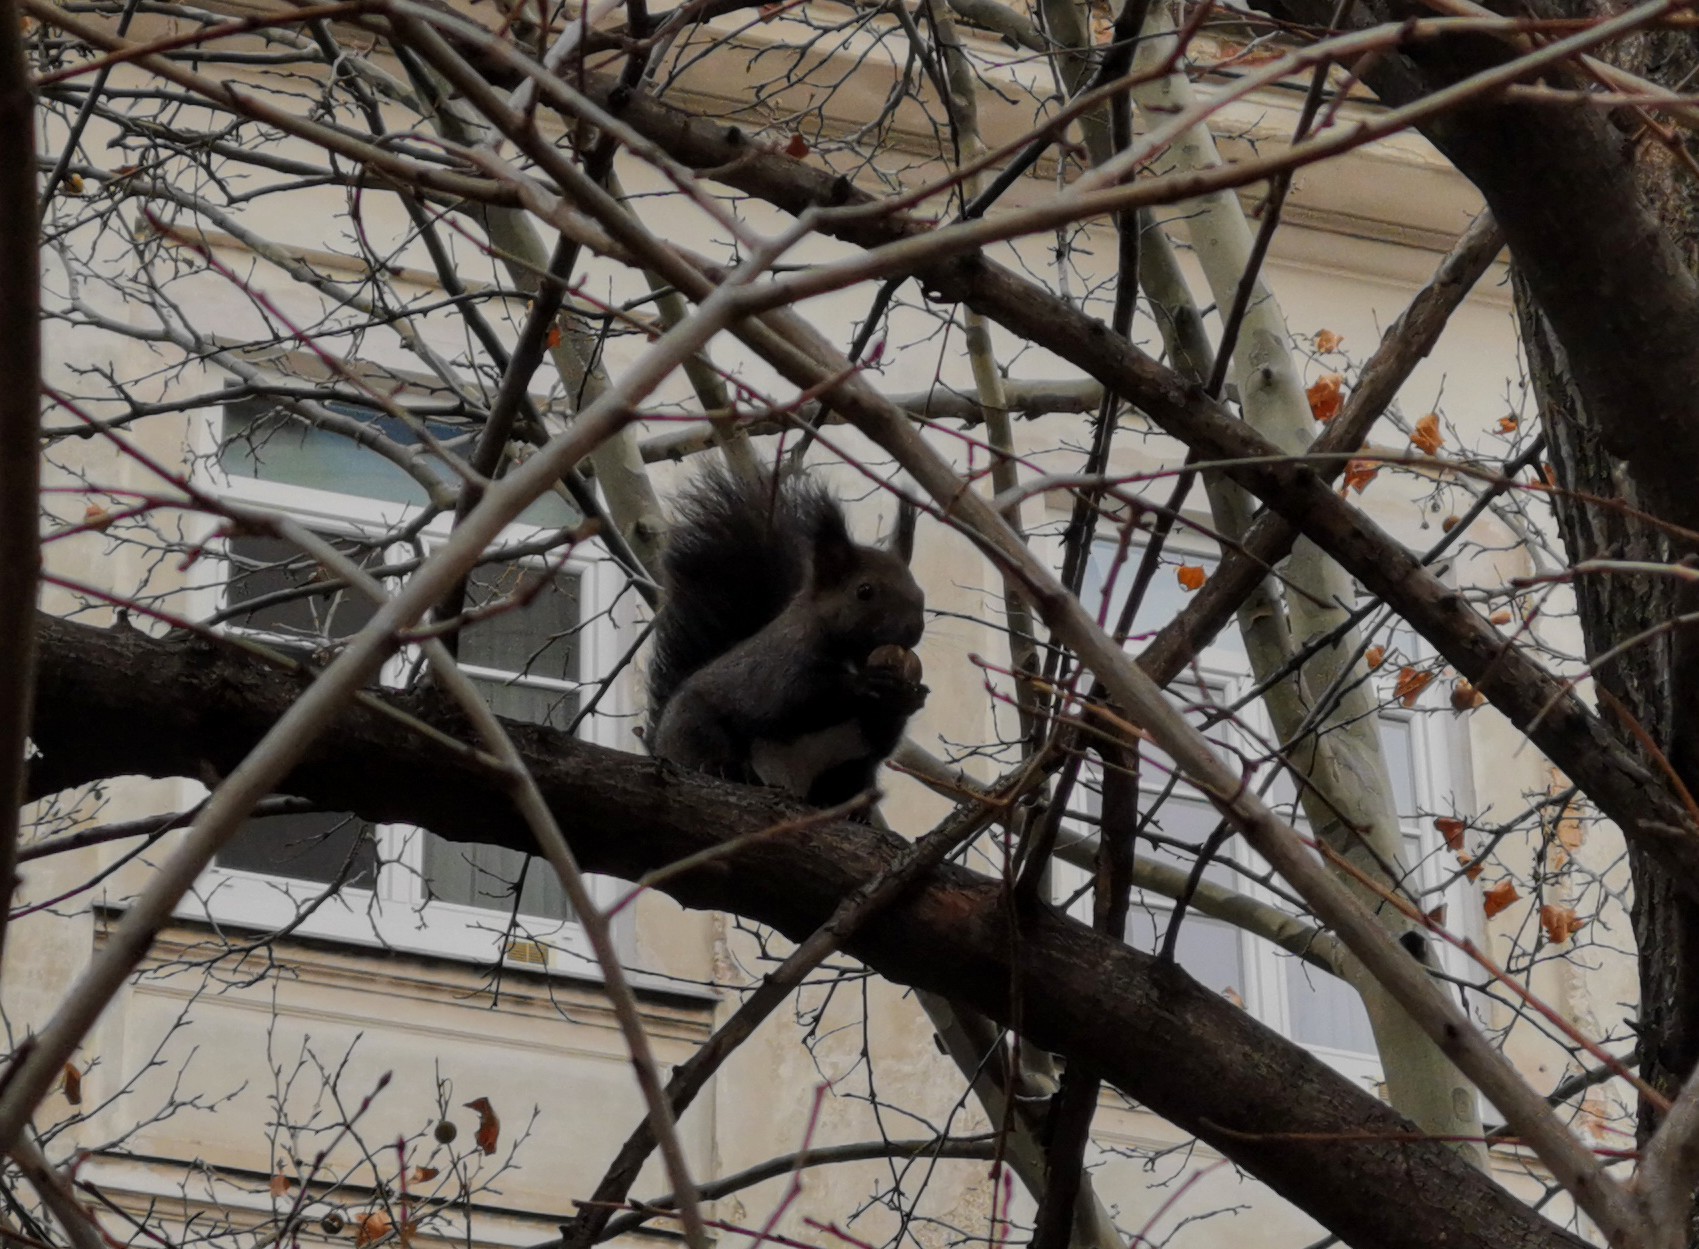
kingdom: Animalia
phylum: Chordata
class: Mammalia
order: Rodentia
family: Sciuridae
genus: Sciurus
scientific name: Sciurus vulgaris
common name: Eurasian red squirrel
